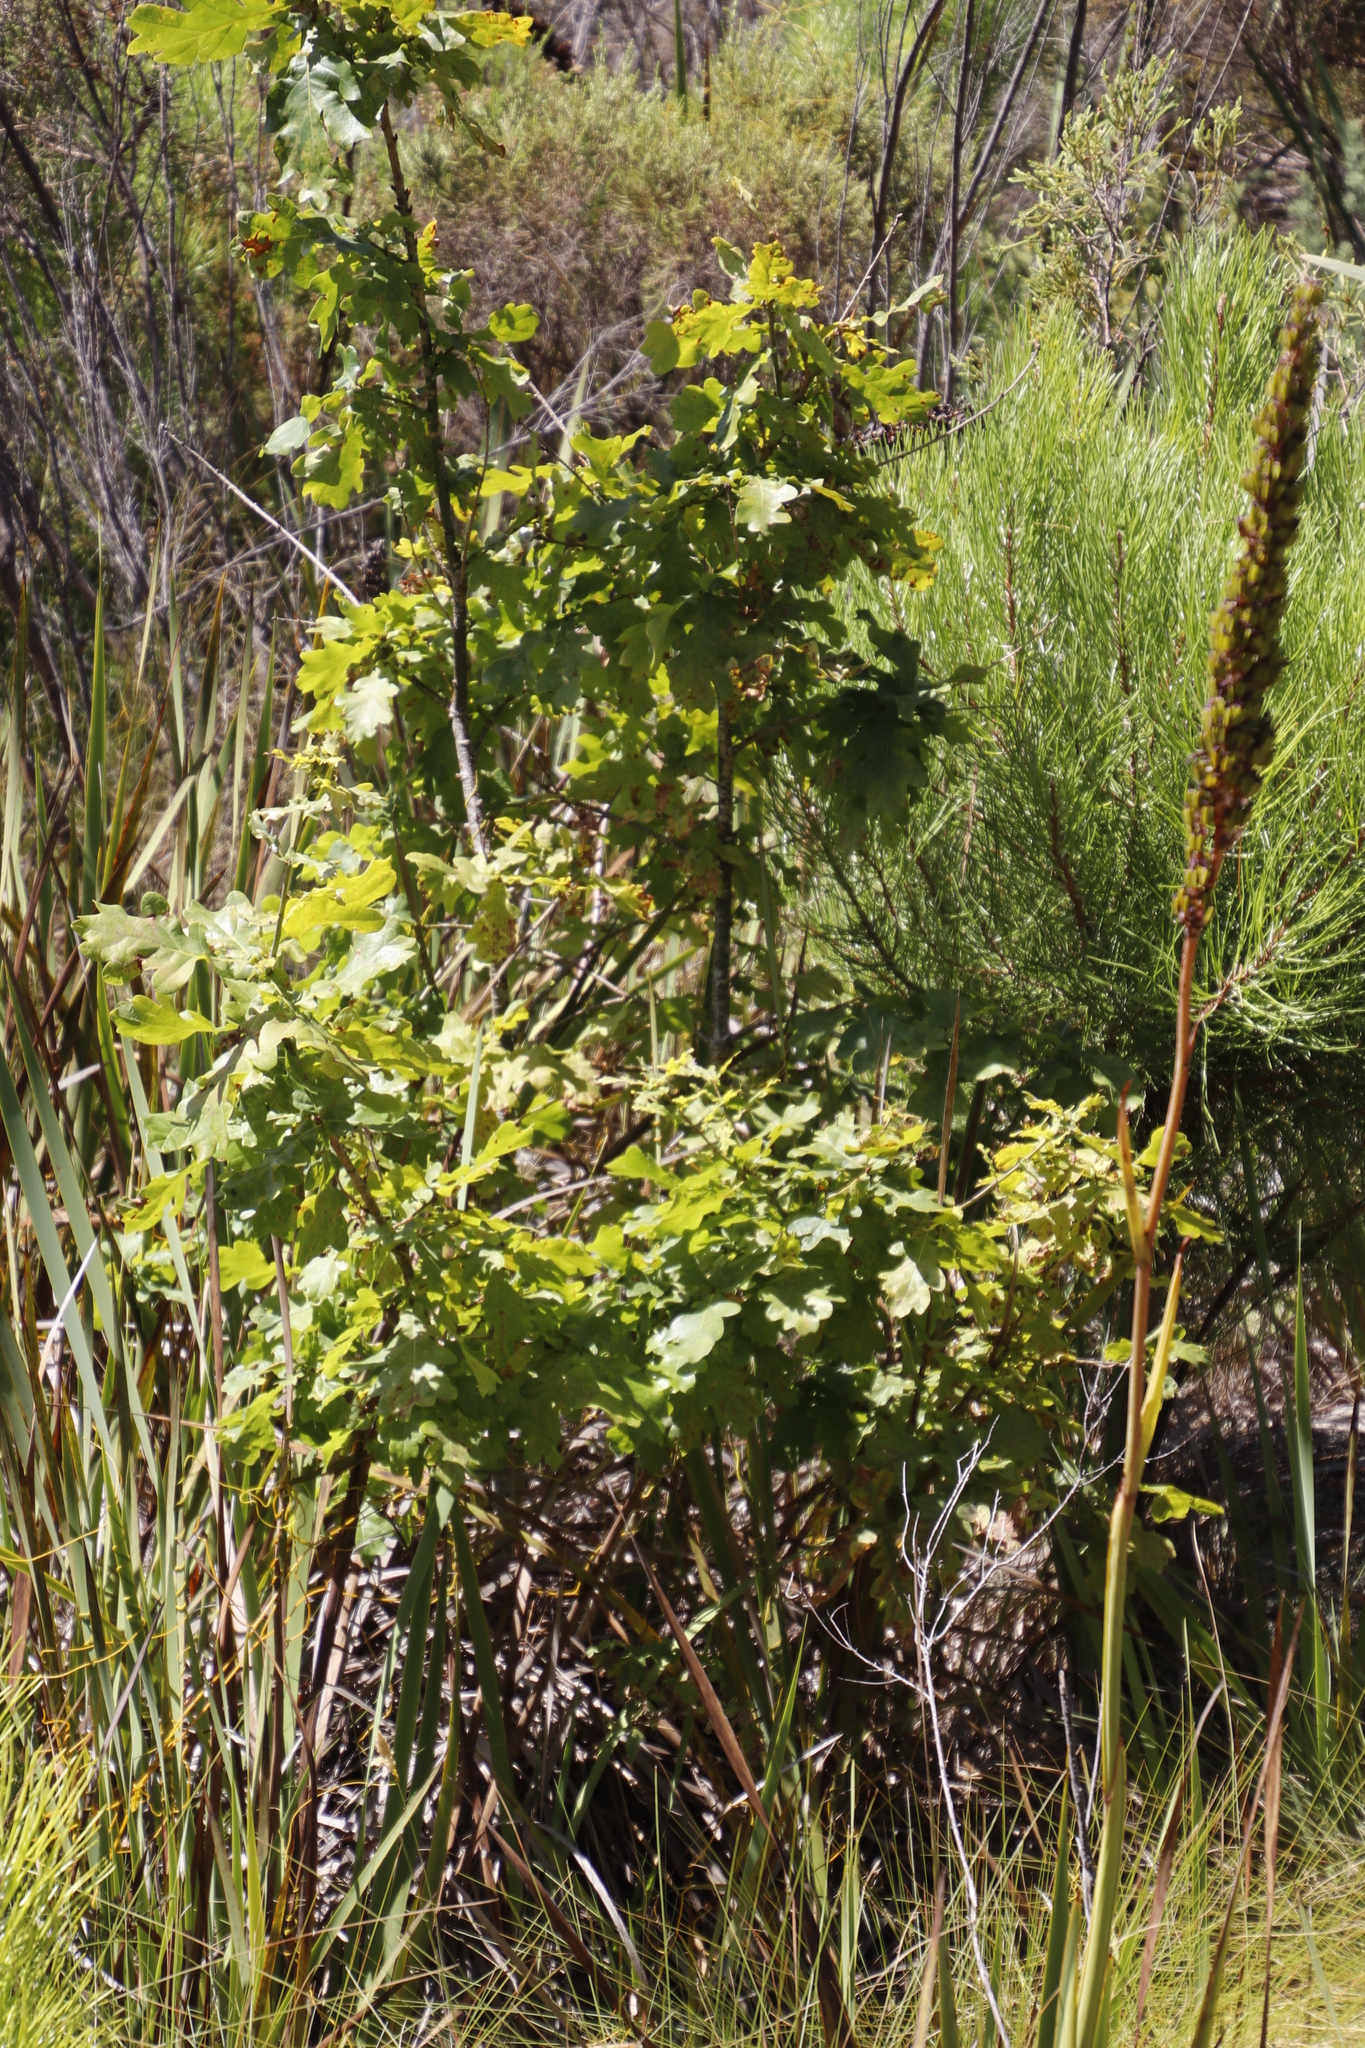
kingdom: Plantae
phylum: Tracheophyta
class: Magnoliopsida
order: Fagales
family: Fagaceae
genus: Quercus
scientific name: Quercus robur
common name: Pedunculate oak
